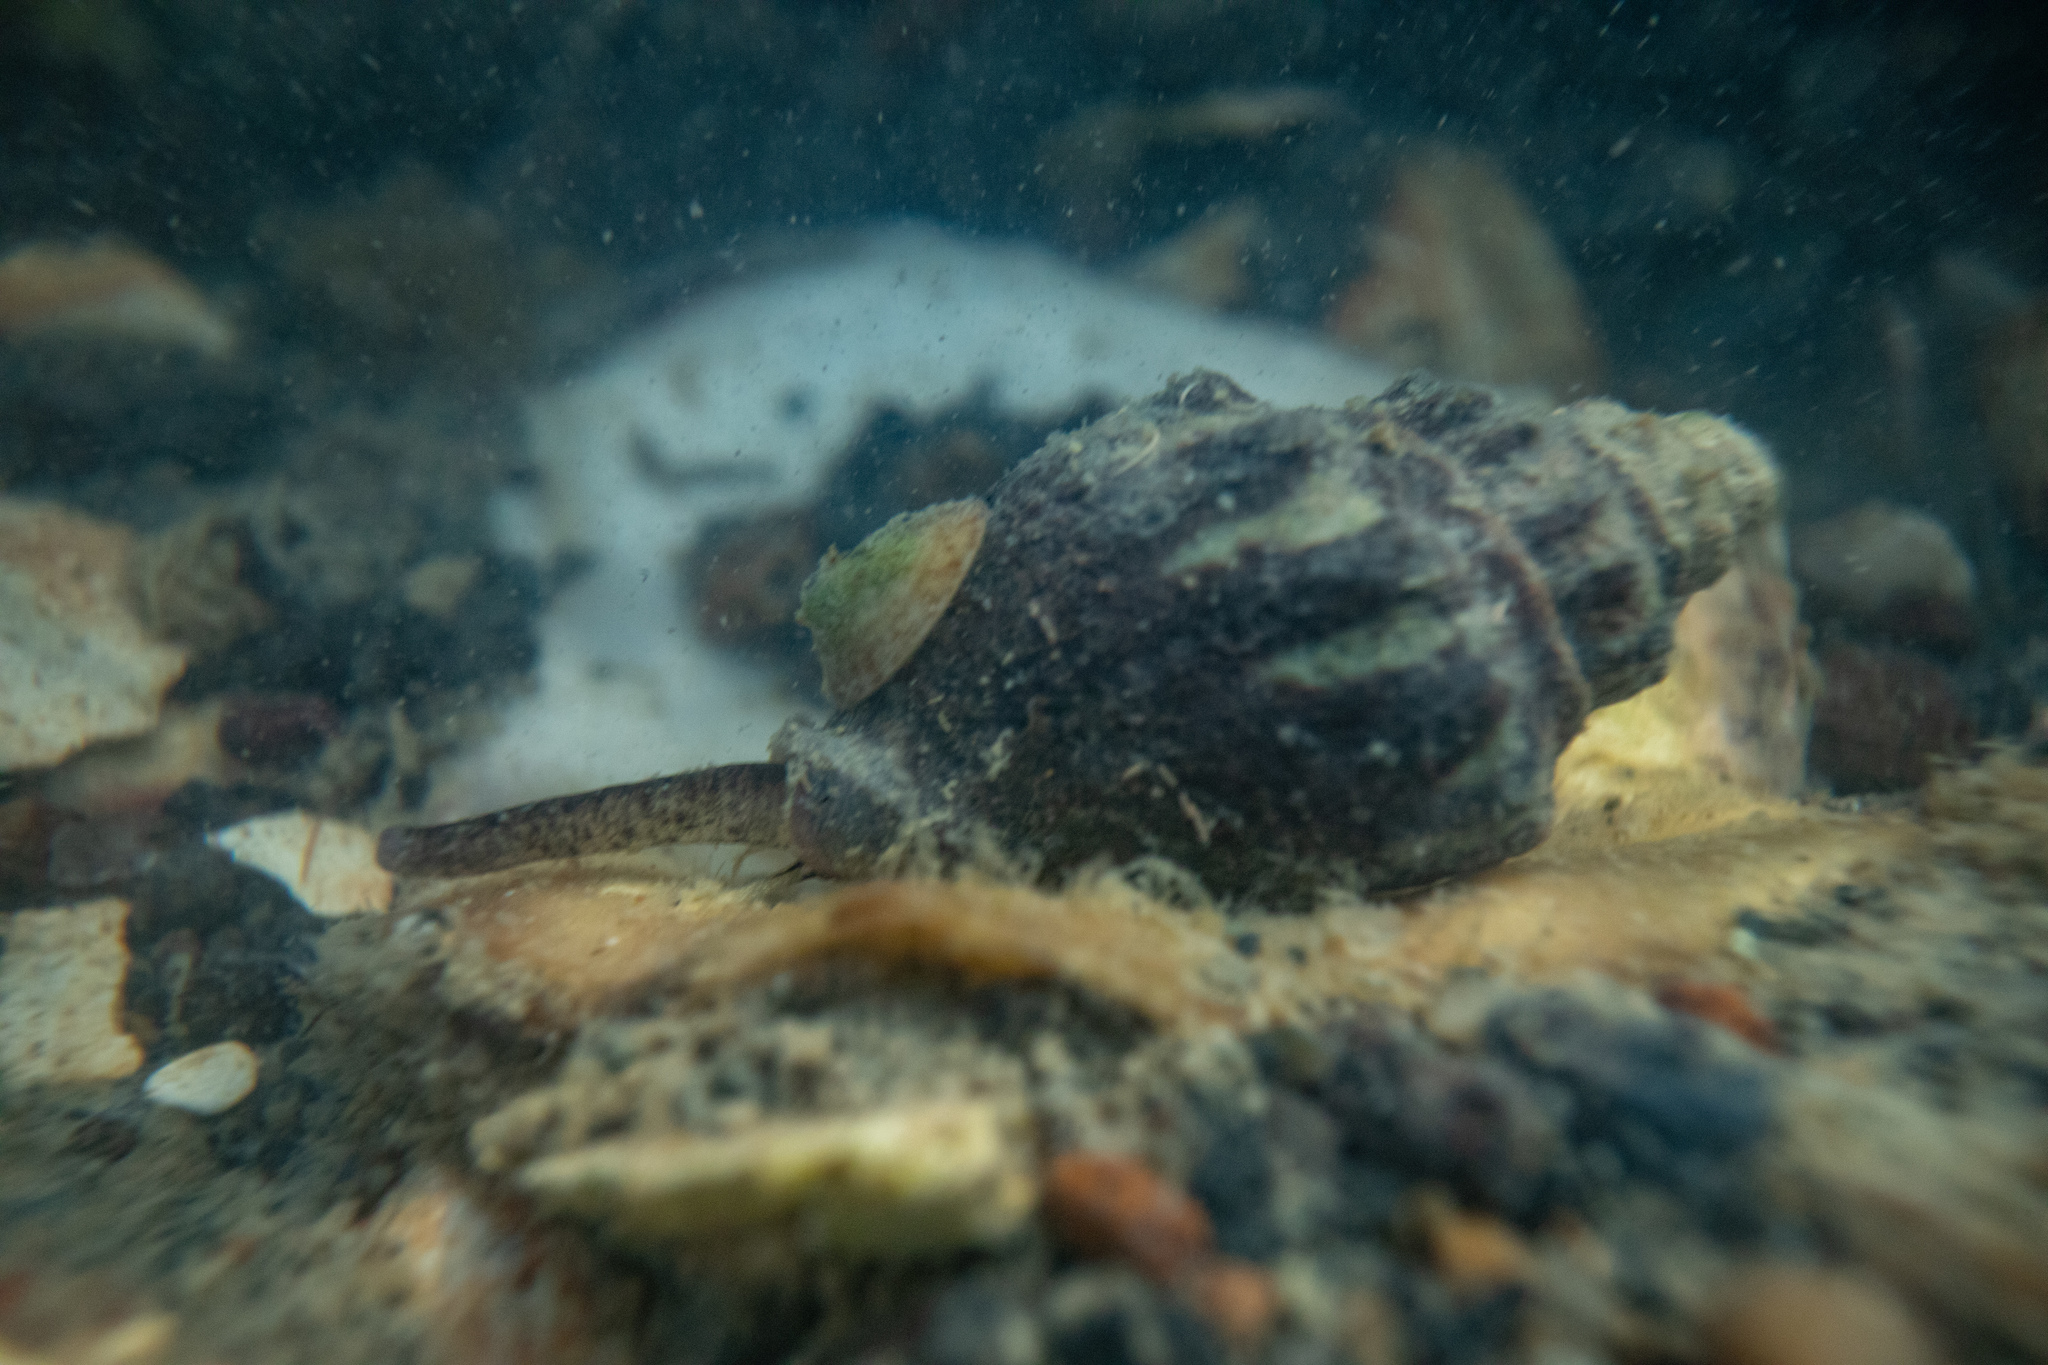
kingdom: Animalia
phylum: Mollusca
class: Gastropoda
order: Neogastropoda
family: Cominellidae
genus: Cominella
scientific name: Cominella glandiformis
